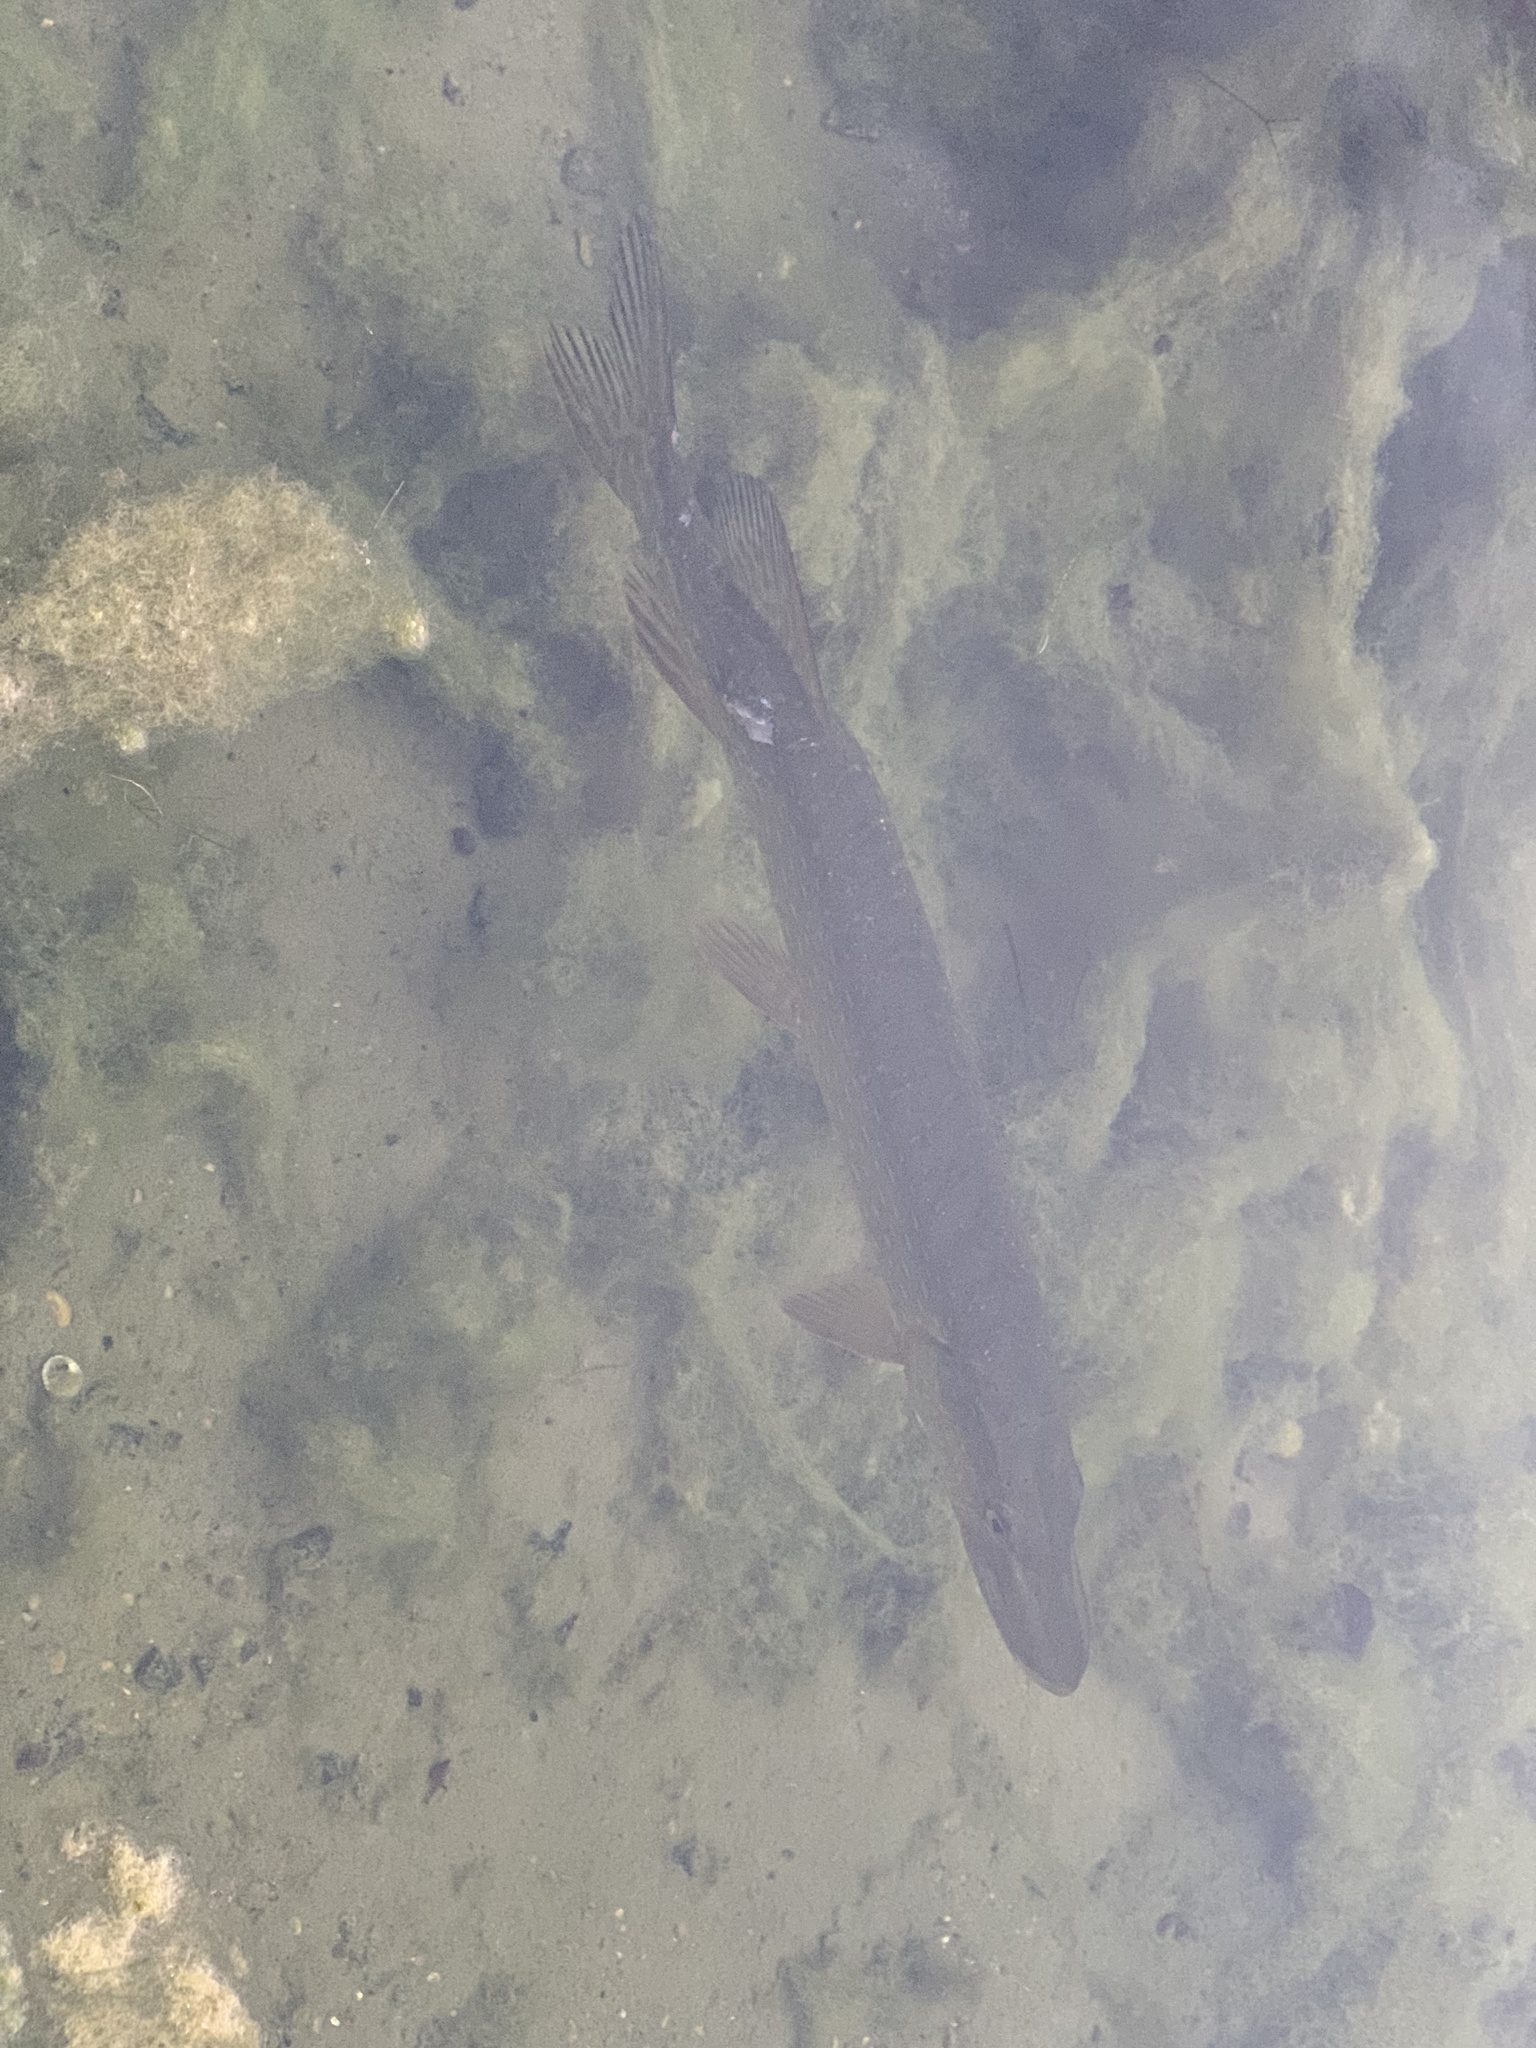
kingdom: Animalia
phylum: Chordata
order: Esociformes
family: Esocidae
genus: Esox
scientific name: Esox lucius
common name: Northern pike
